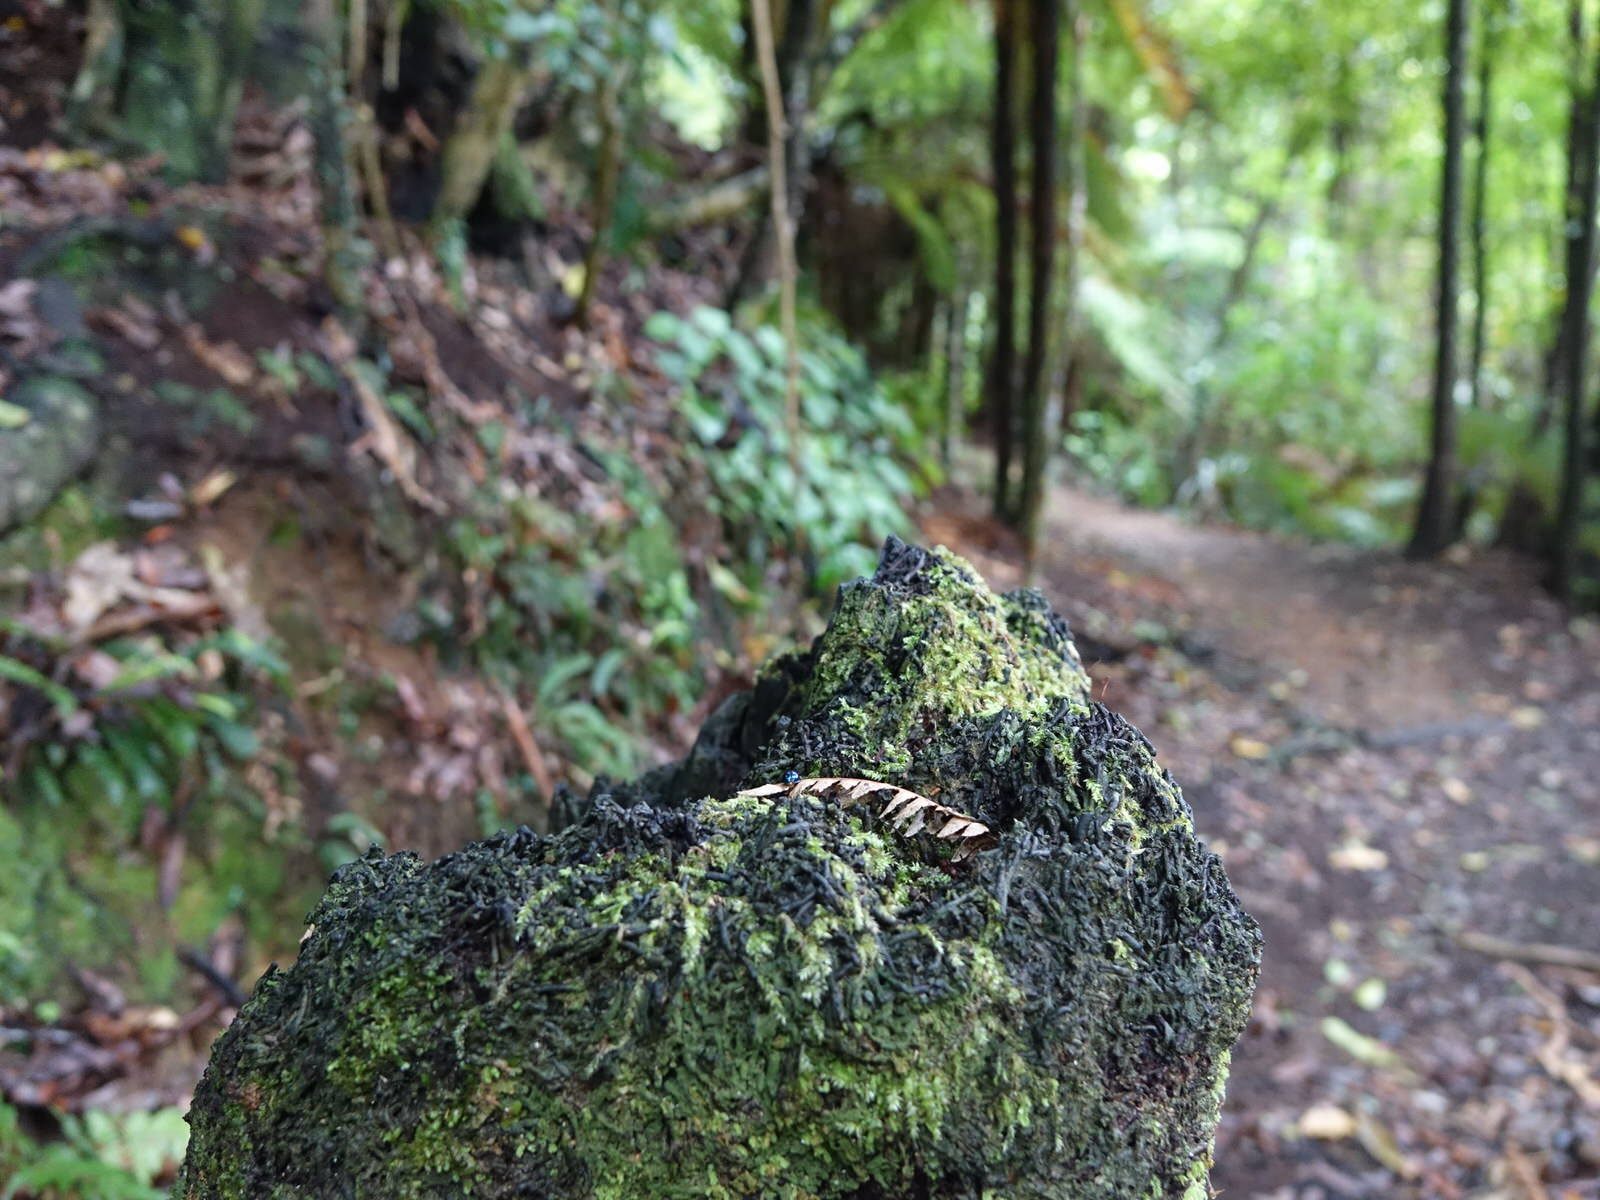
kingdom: Animalia
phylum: Arthropoda
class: Insecta
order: Coleoptera
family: Coccinellidae
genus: Halmus
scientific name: Halmus chalybeus
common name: Steel blue ladybird beetle
